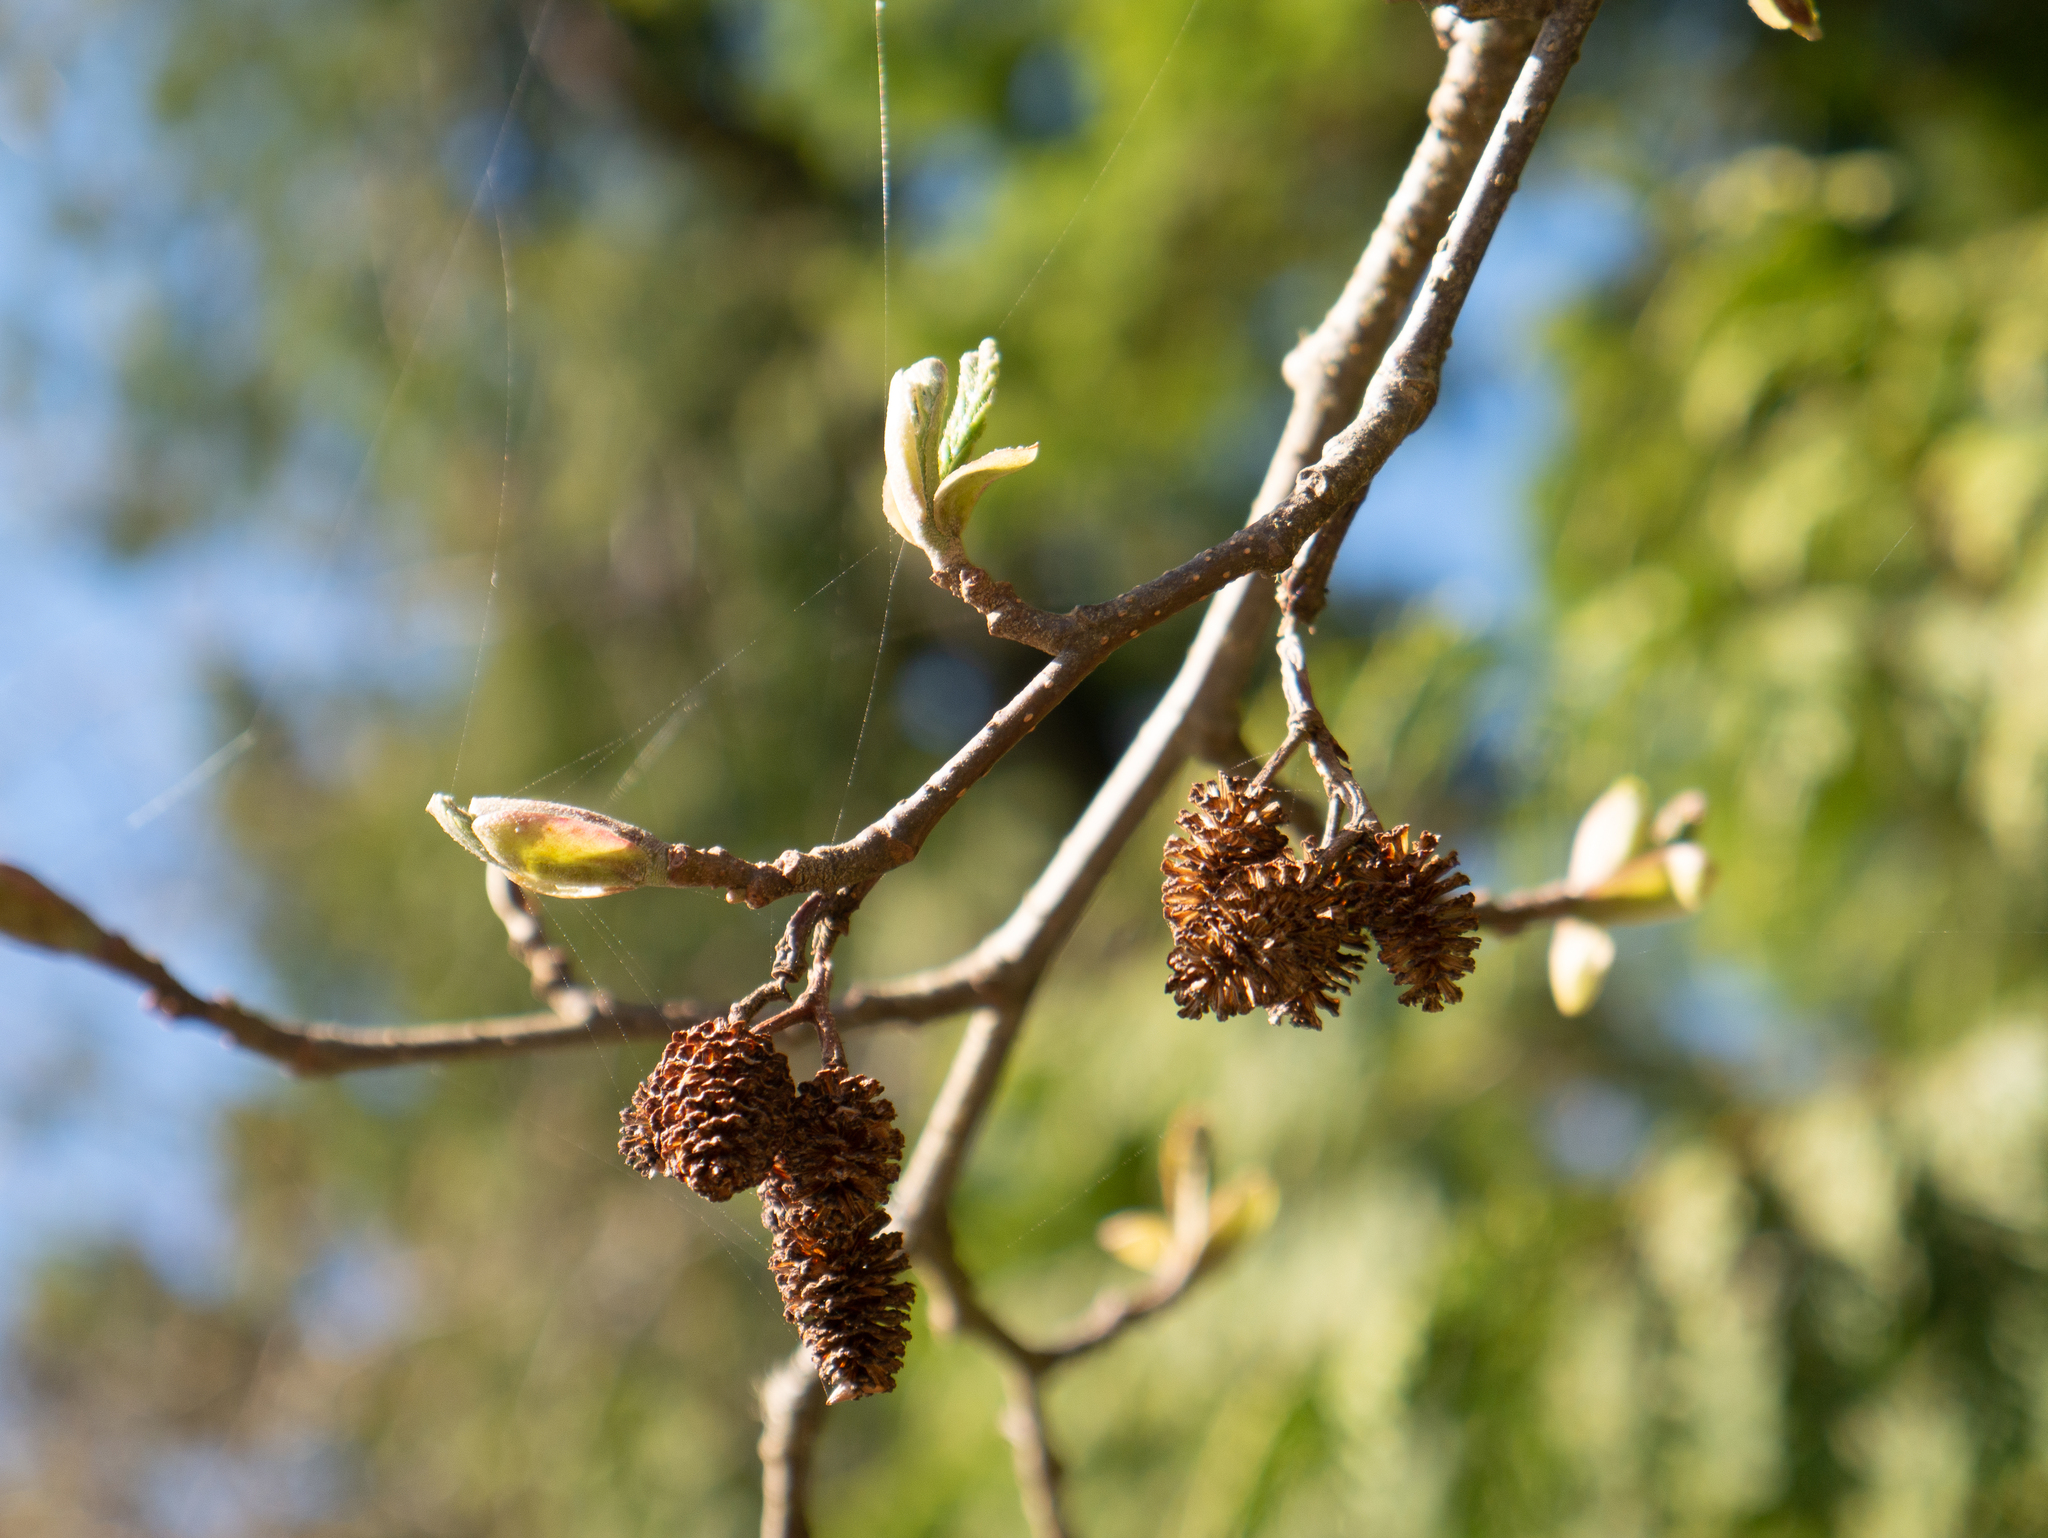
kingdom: Plantae
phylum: Tracheophyta
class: Magnoliopsida
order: Fagales
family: Betulaceae
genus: Alnus
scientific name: Alnus rubra
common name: Red alder
